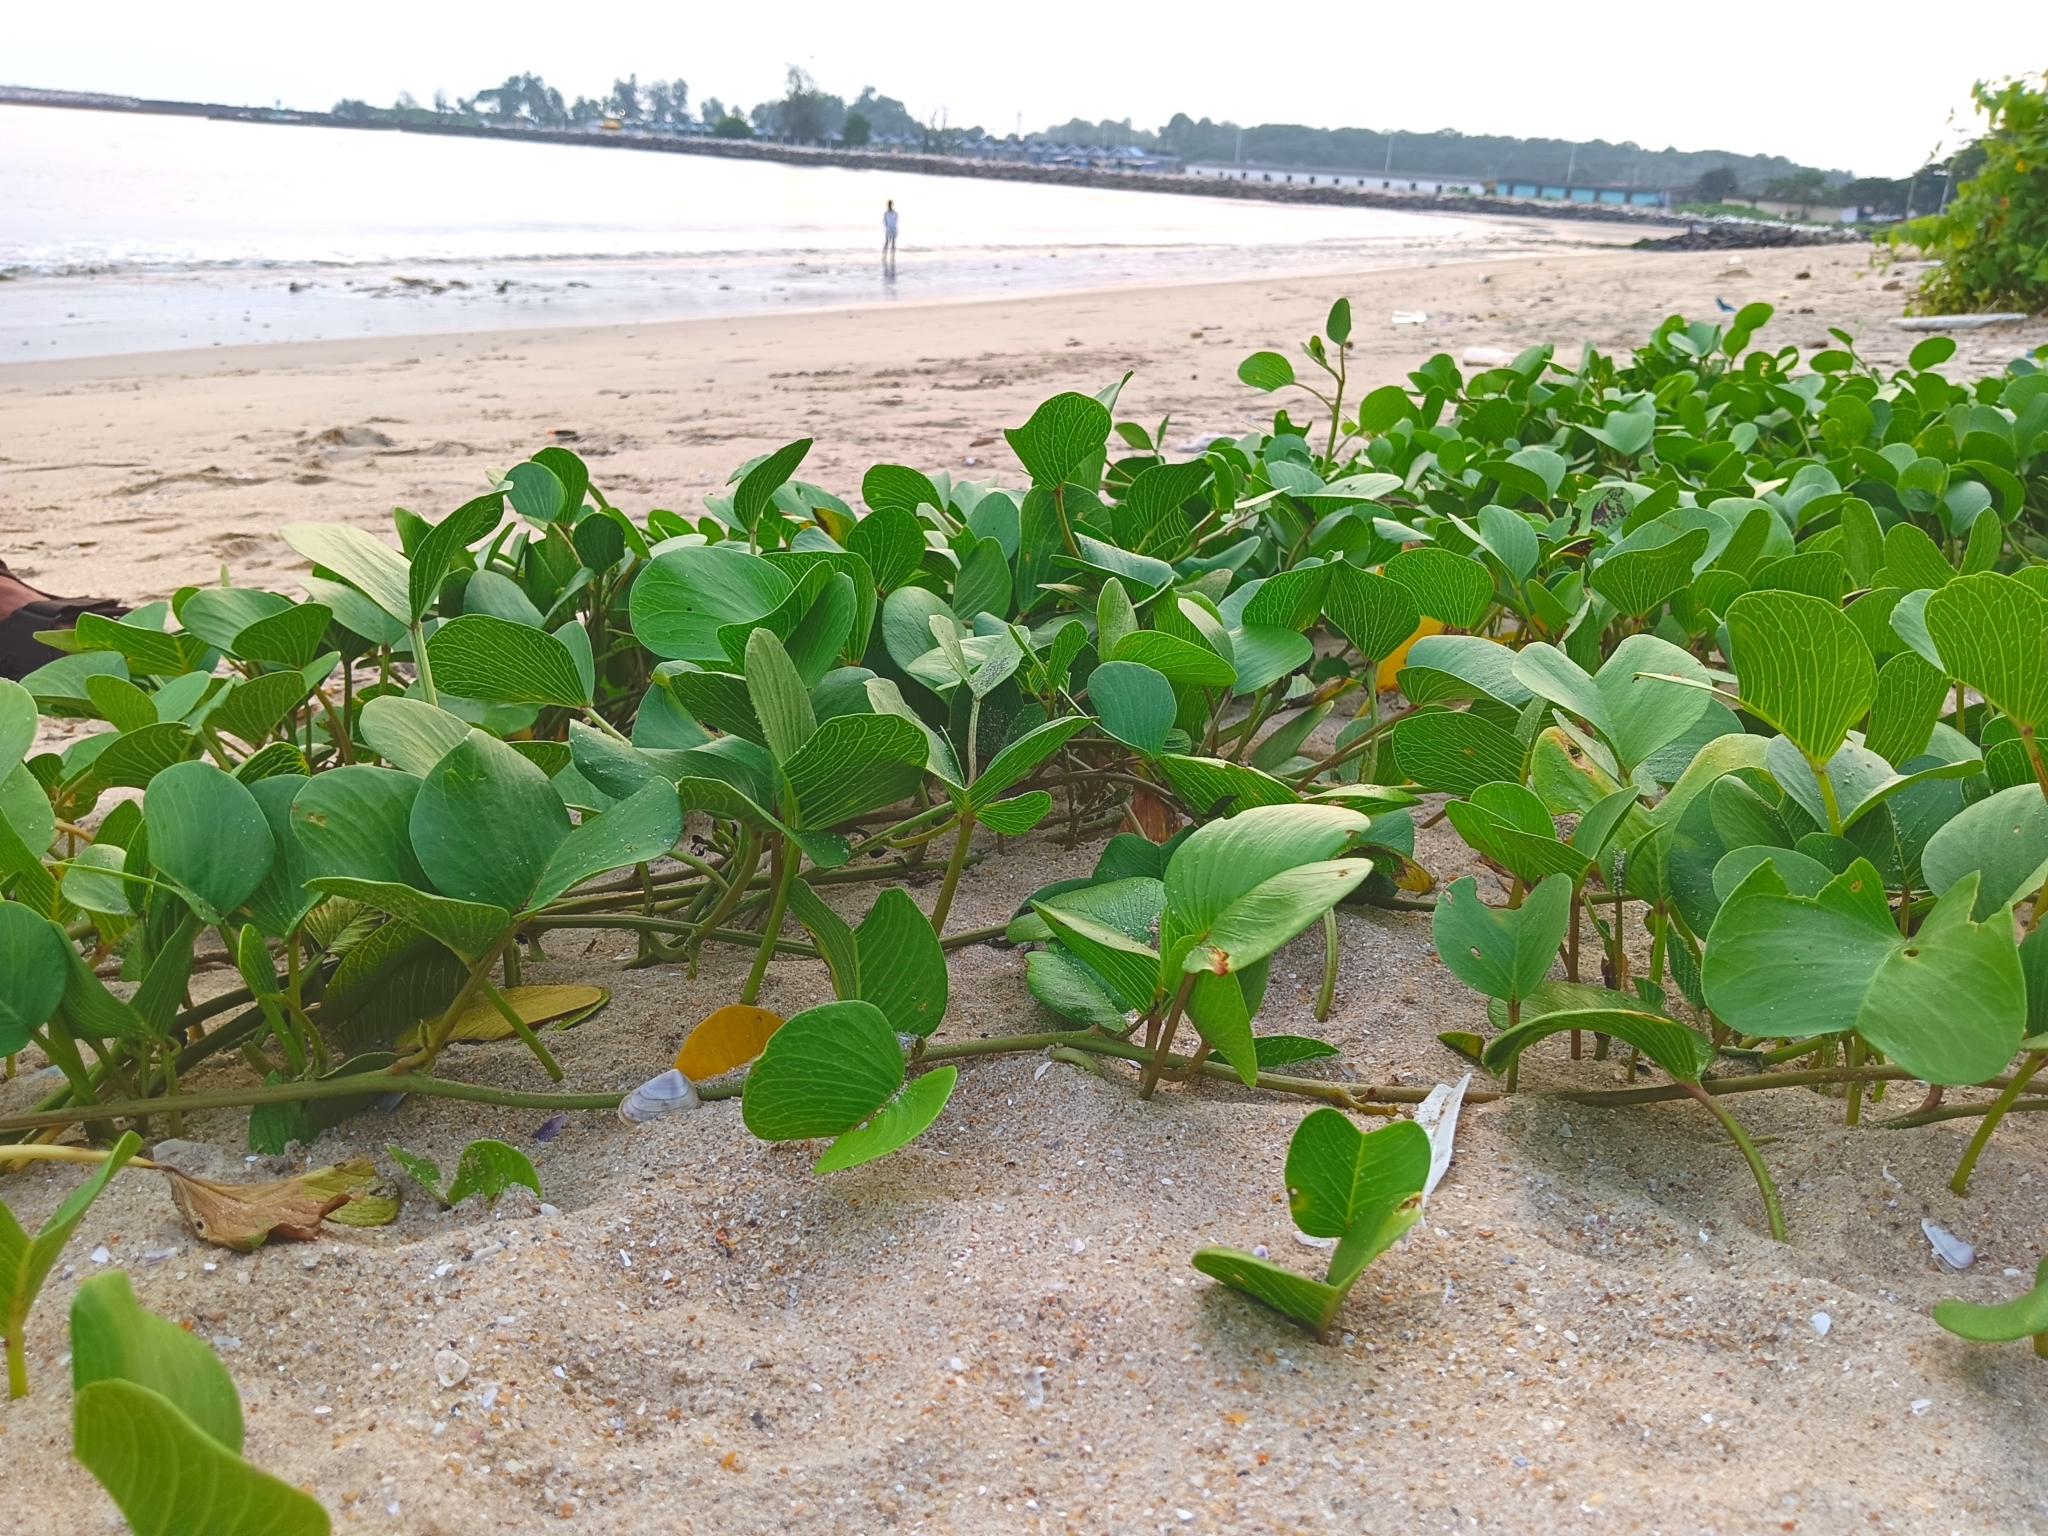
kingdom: Plantae
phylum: Tracheophyta
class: Magnoliopsida
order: Solanales
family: Convolvulaceae
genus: Ipomoea
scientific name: Ipomoea pes-caprae
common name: Beach morning glory
